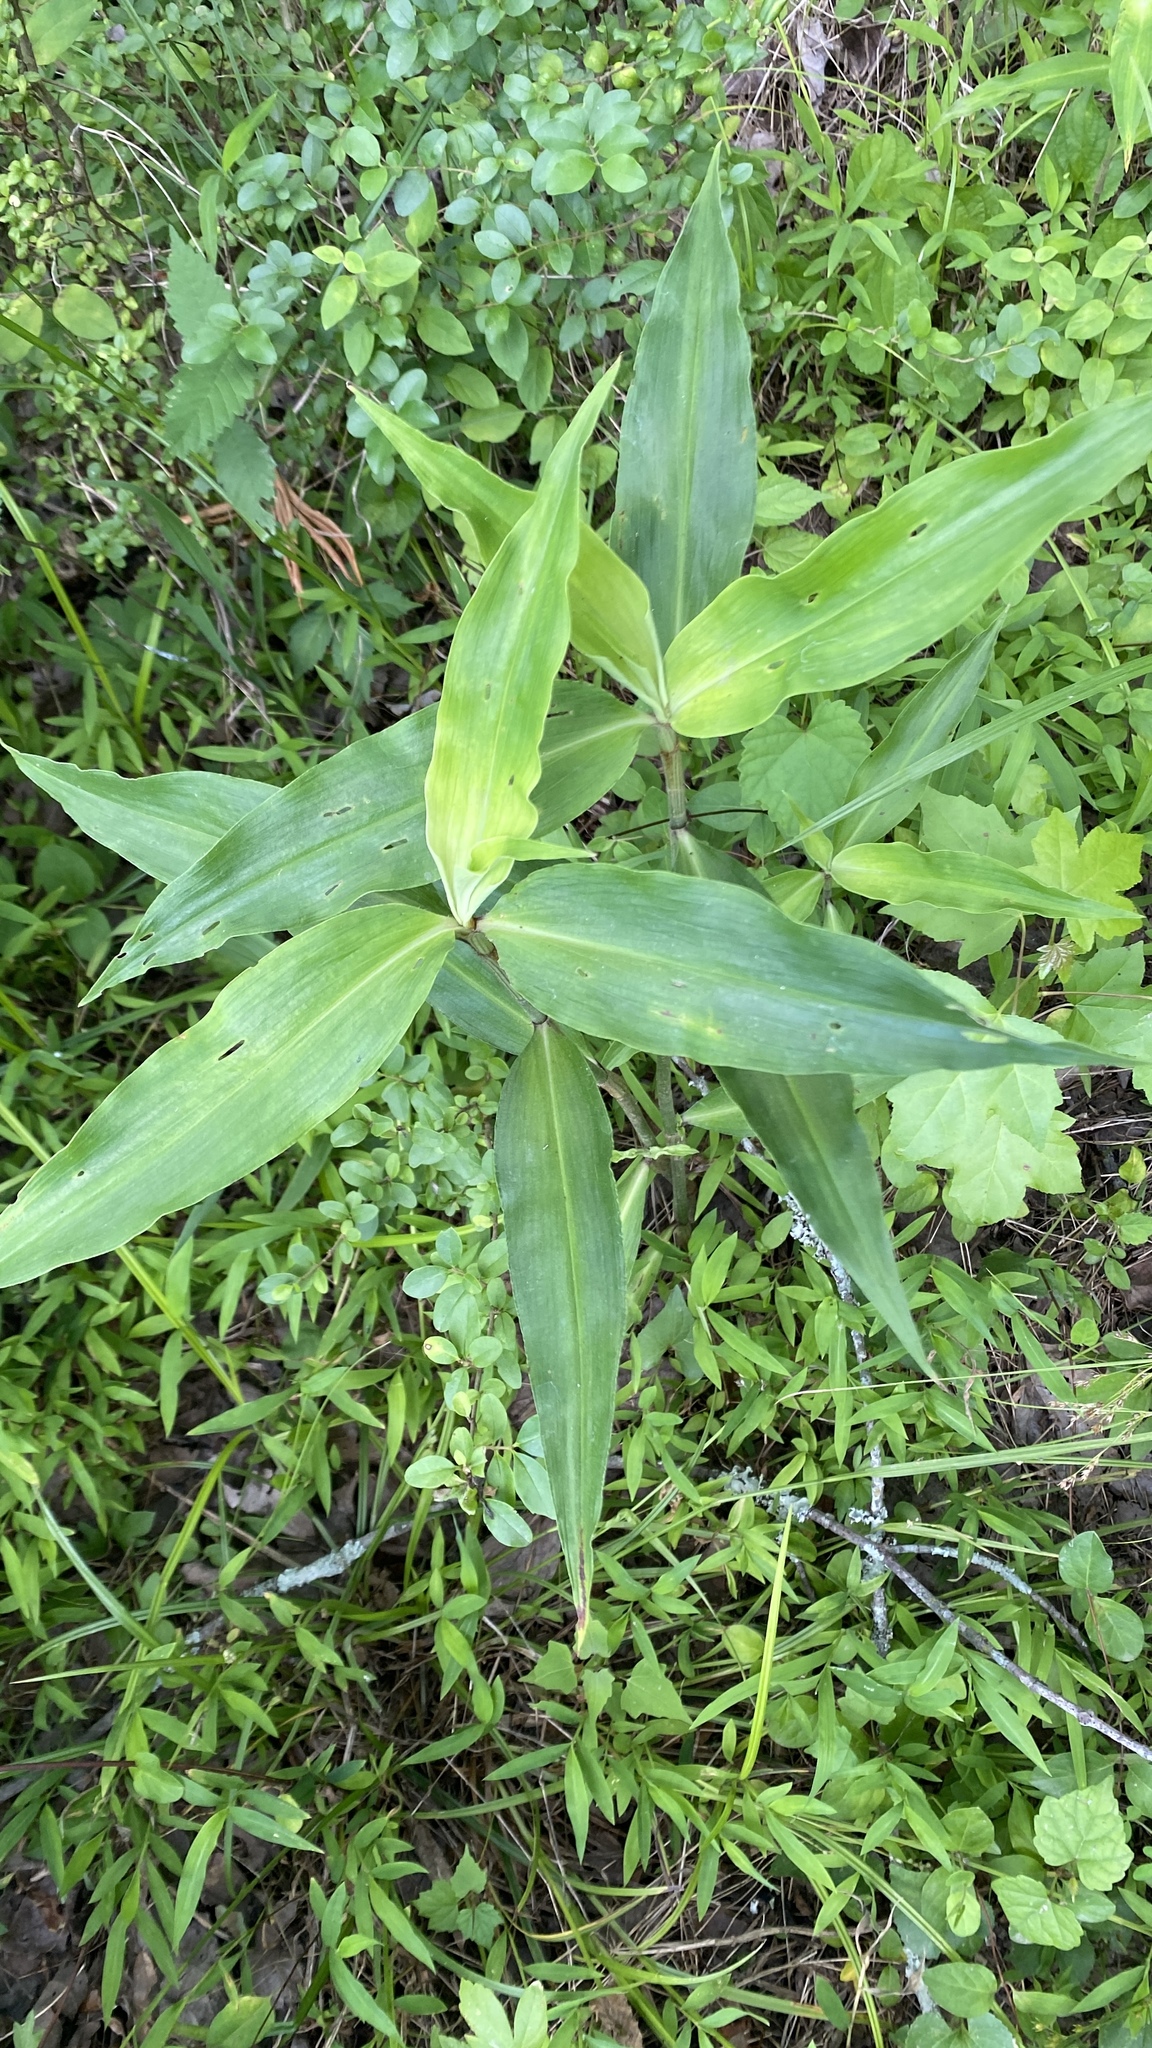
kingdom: Plantae
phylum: Tracheophyta
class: Liliopsida
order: Commelinales
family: Commelinaceae
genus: Commelina
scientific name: Commelina virginica
